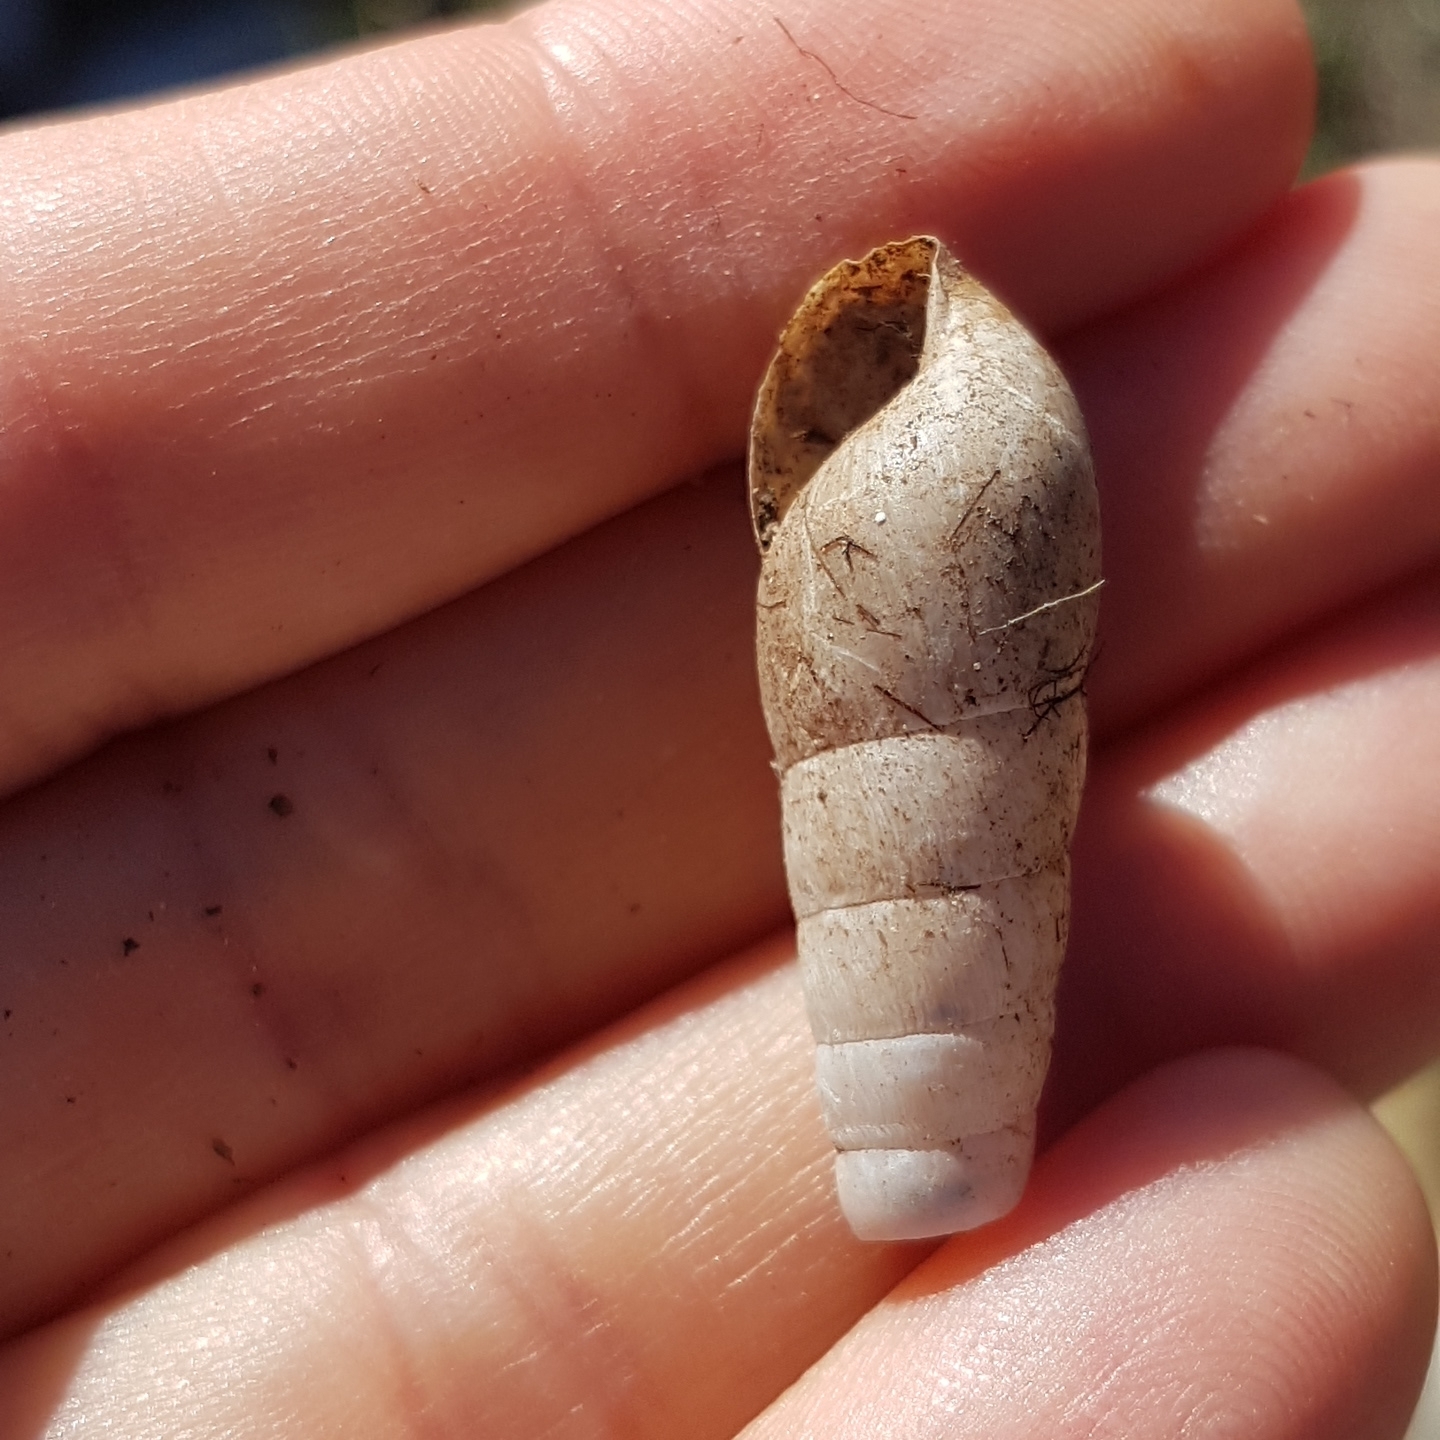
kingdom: Animalia
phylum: Mollusca
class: Gastropoda
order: Stylommatophora
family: Achatinidae
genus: Rumina
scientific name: Rumina decollata
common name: Decollate snail
